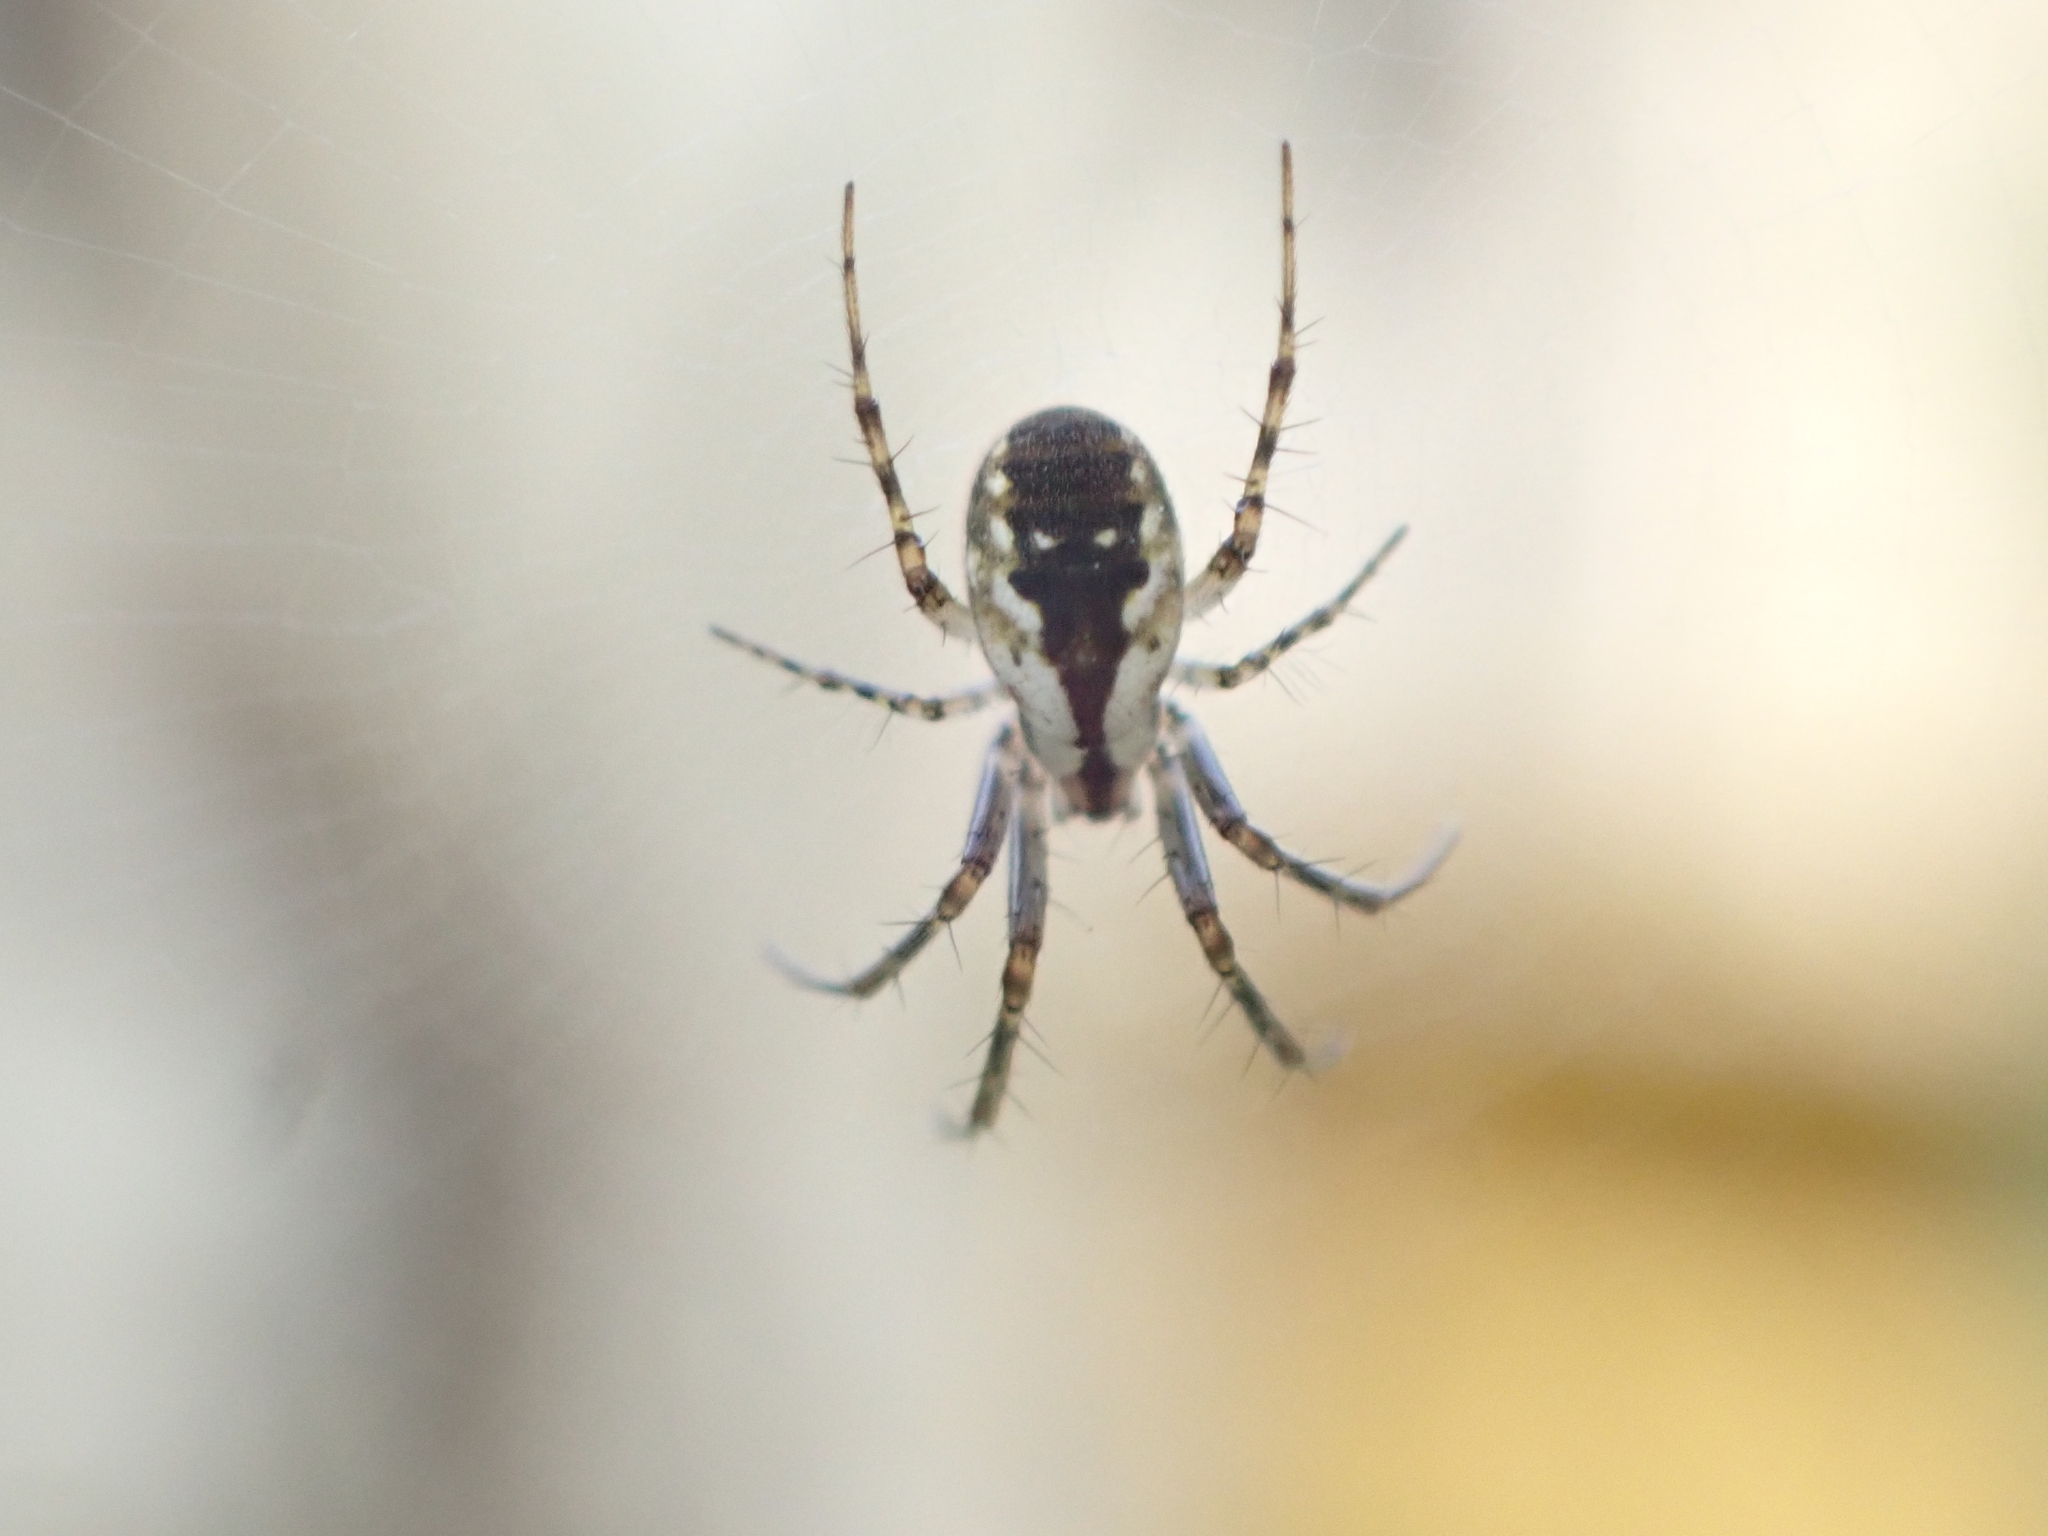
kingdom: Animalia
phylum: Arthropoda
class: Arachnida
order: Araneae
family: Araneidae
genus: Mangora
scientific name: Mangora placida
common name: Tuft-legged orbweaver
